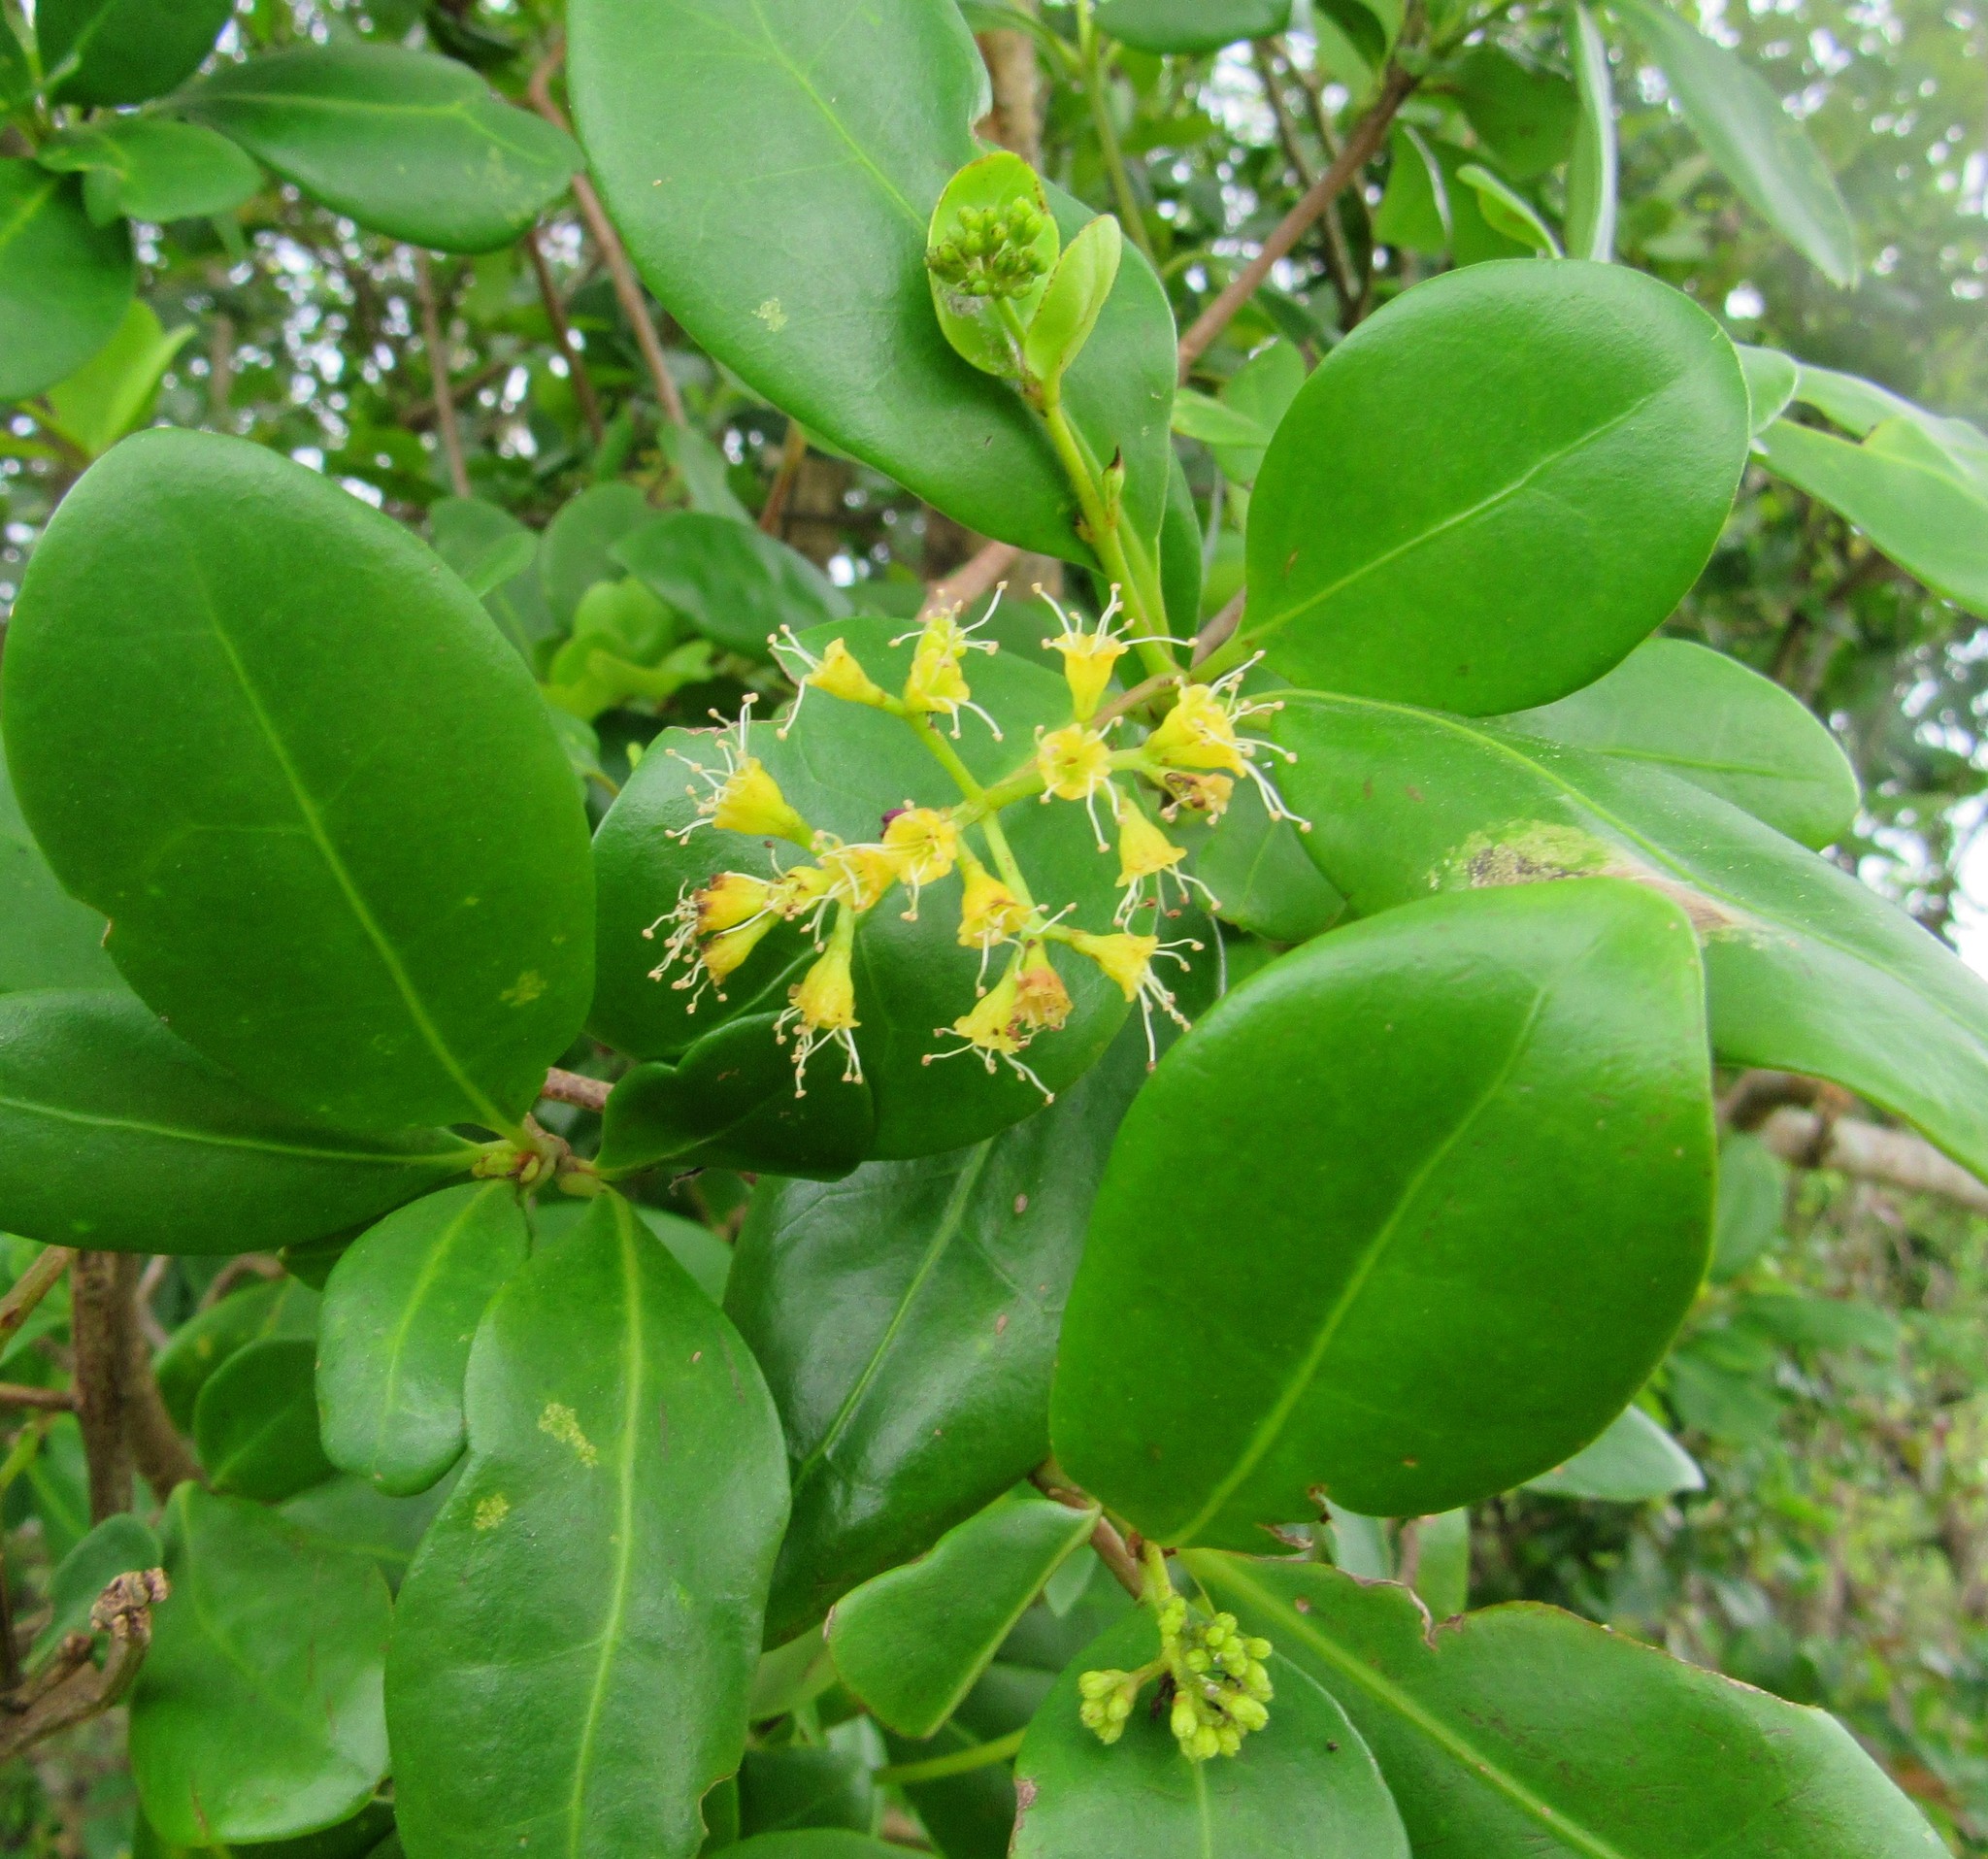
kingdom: Plantae
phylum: Tracheophyta
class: Magnoliopsida
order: Caryophyllales
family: Nyctaginaceae
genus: Guapira
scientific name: Guapira opposita
